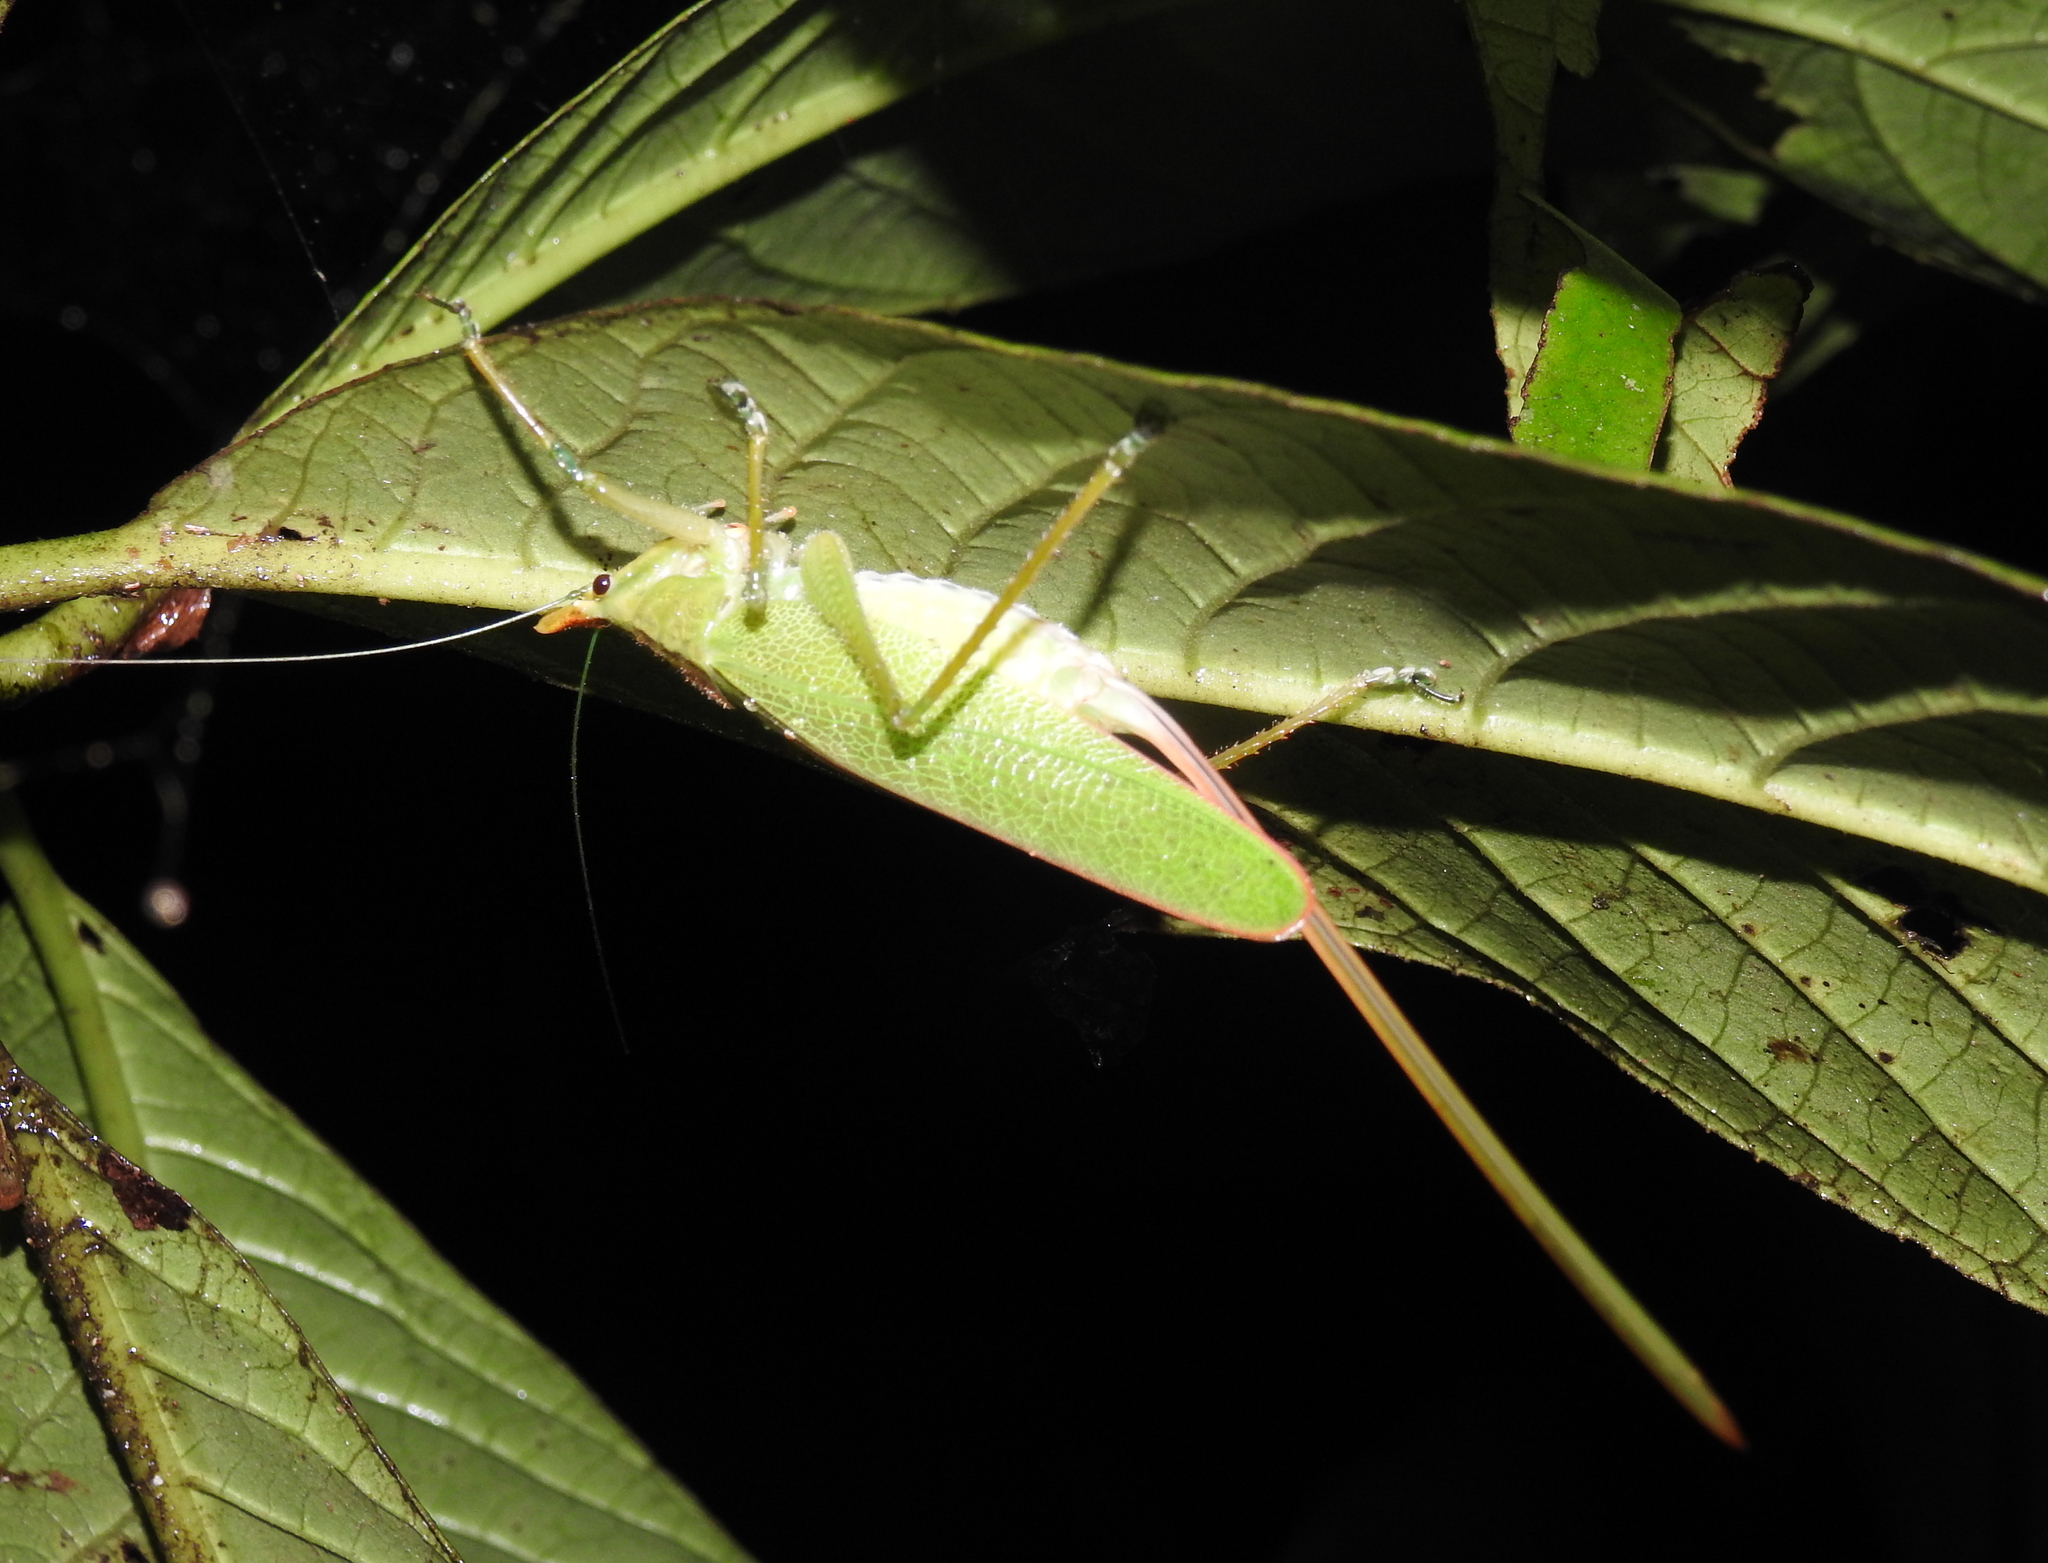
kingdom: Animalia
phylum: Arthropoda
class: Insecta
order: Orthoptera
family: Tettigoniidae
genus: Copiphora
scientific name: Copiphora hastata
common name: Brown-faced spearbearer
